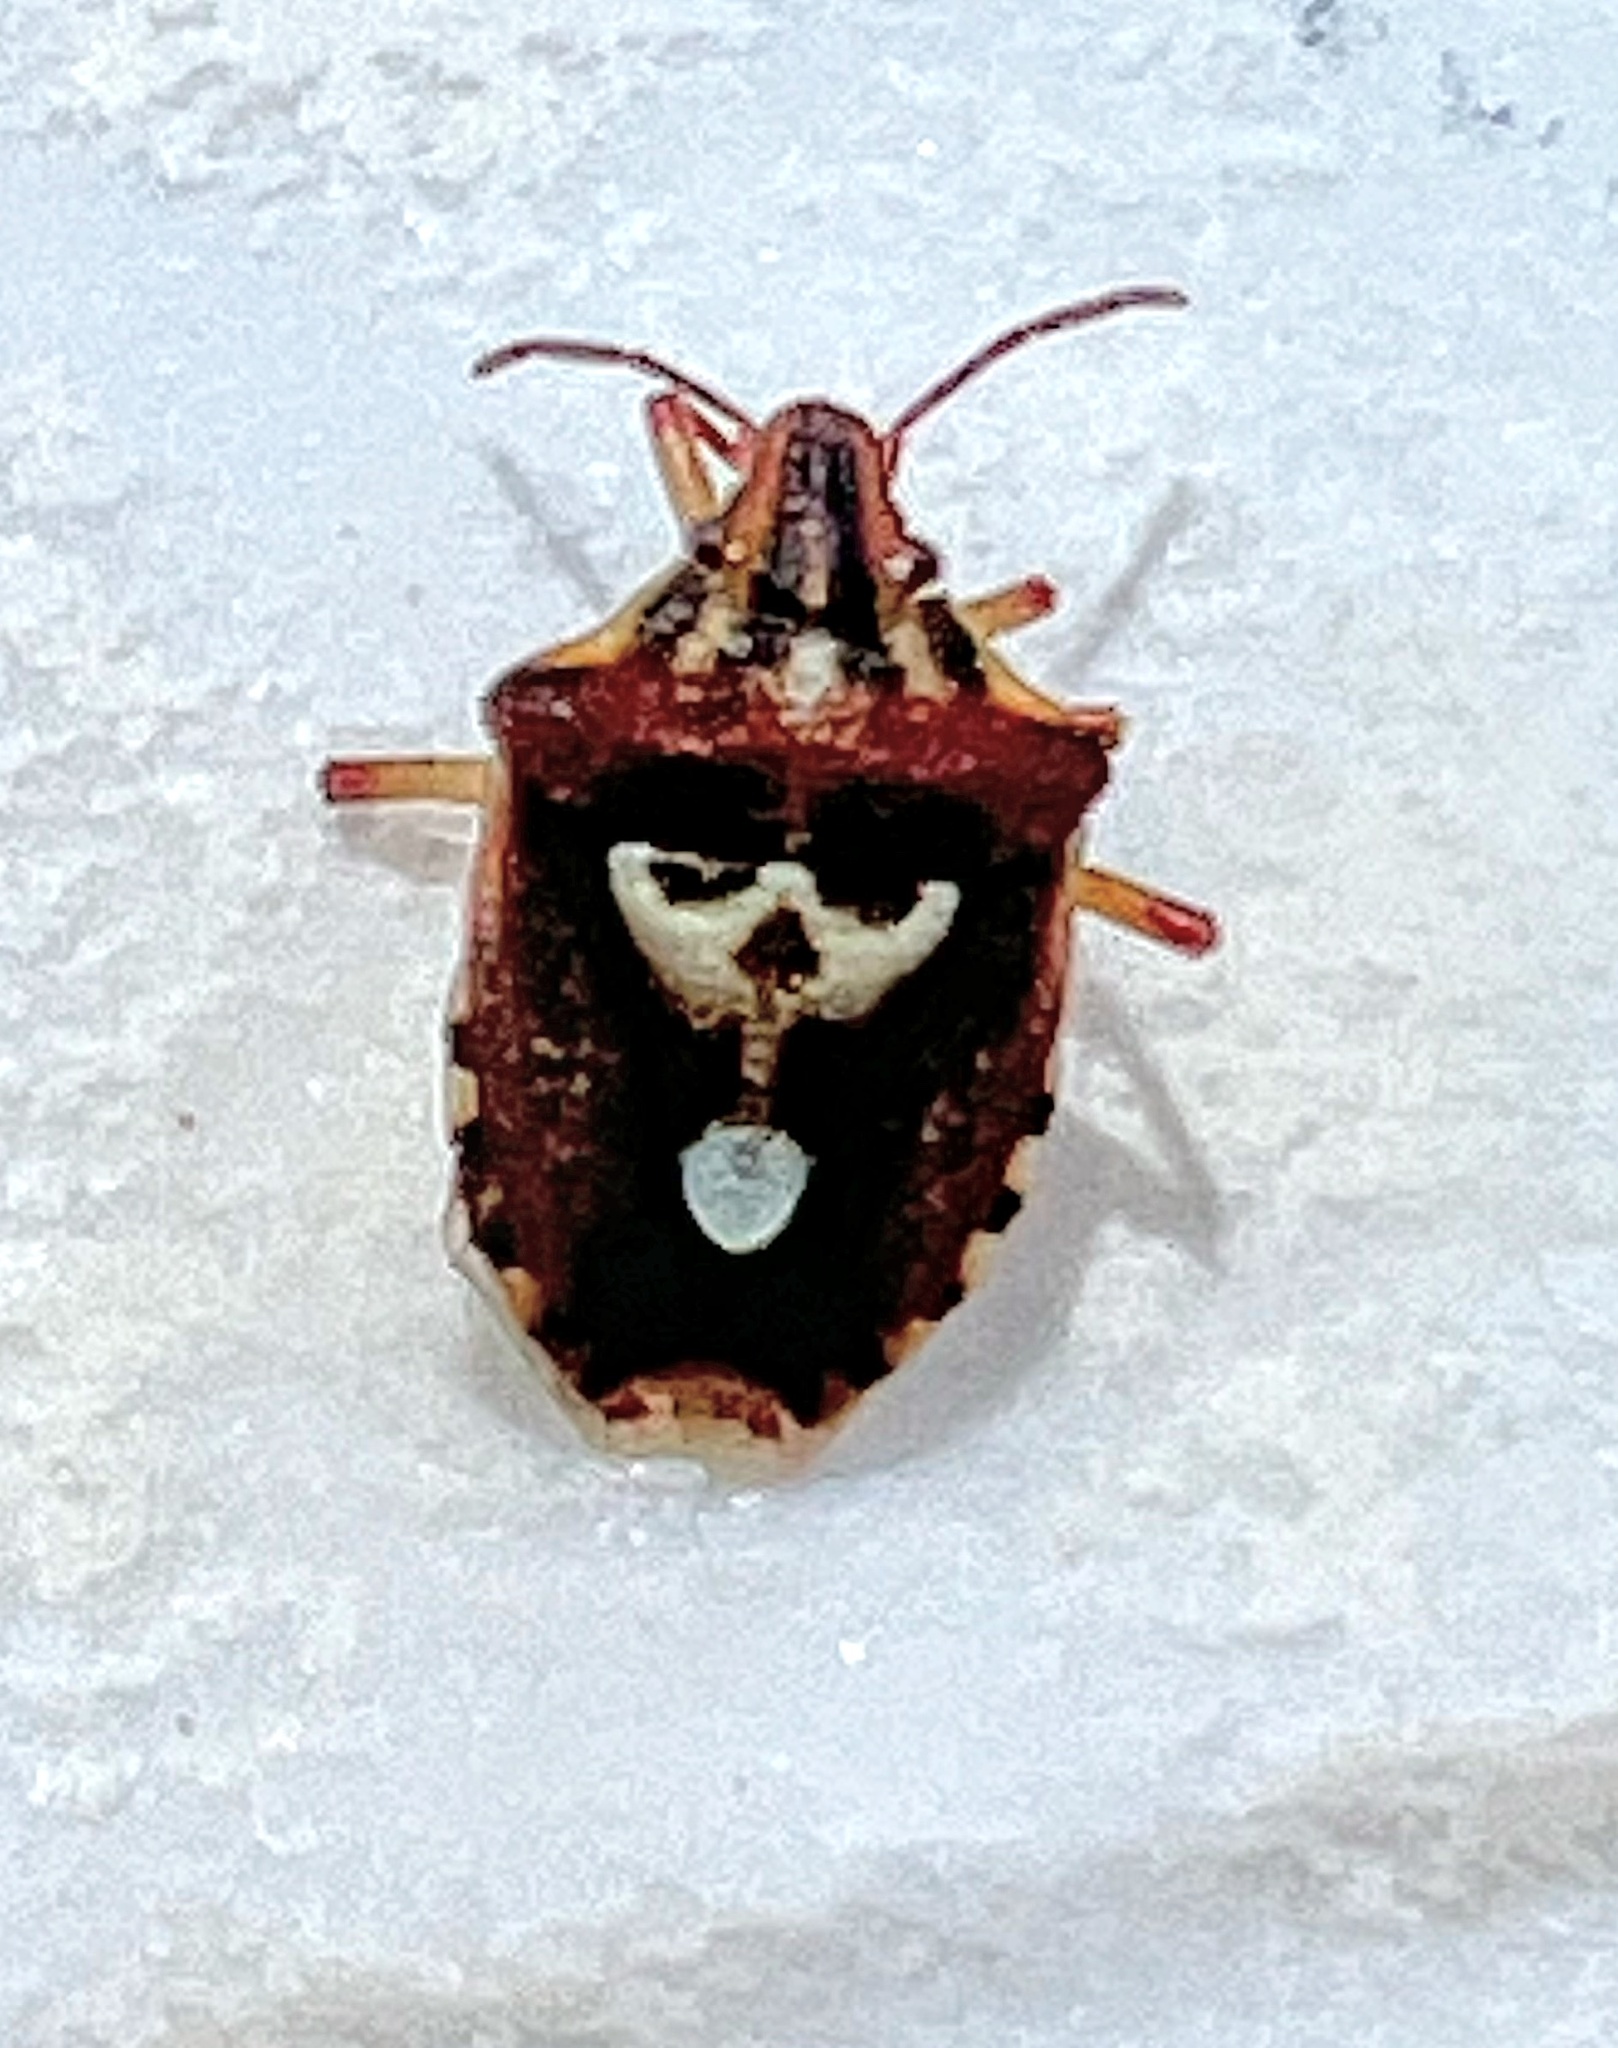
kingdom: Animalia
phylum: Arthropoda
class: Insecta
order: Hemiptera
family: Miridae
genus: Orthops
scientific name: Orthops kalmii
